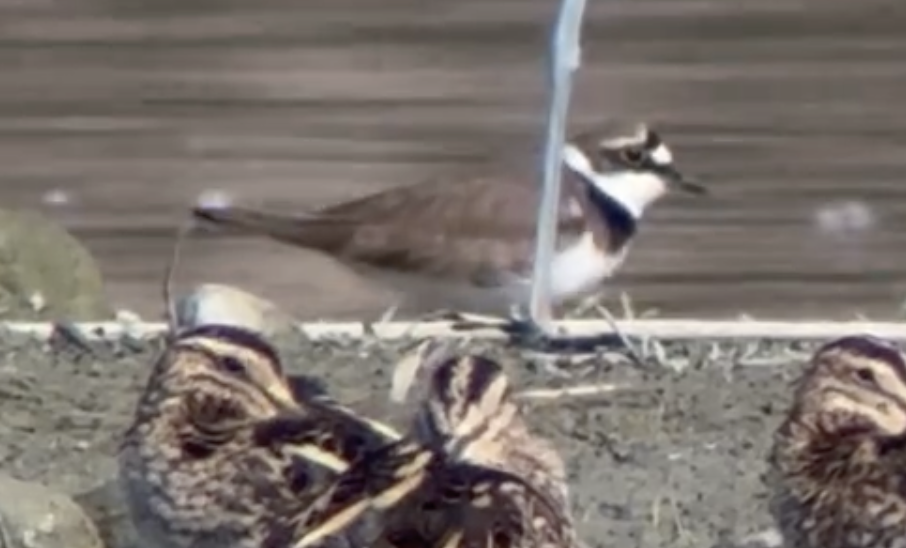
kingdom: Animalia
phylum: Chordata
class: Aves
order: Charadriiformes
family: Charadriidae
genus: Charadrius
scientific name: Charadrius dubius
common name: Little ringed plover
